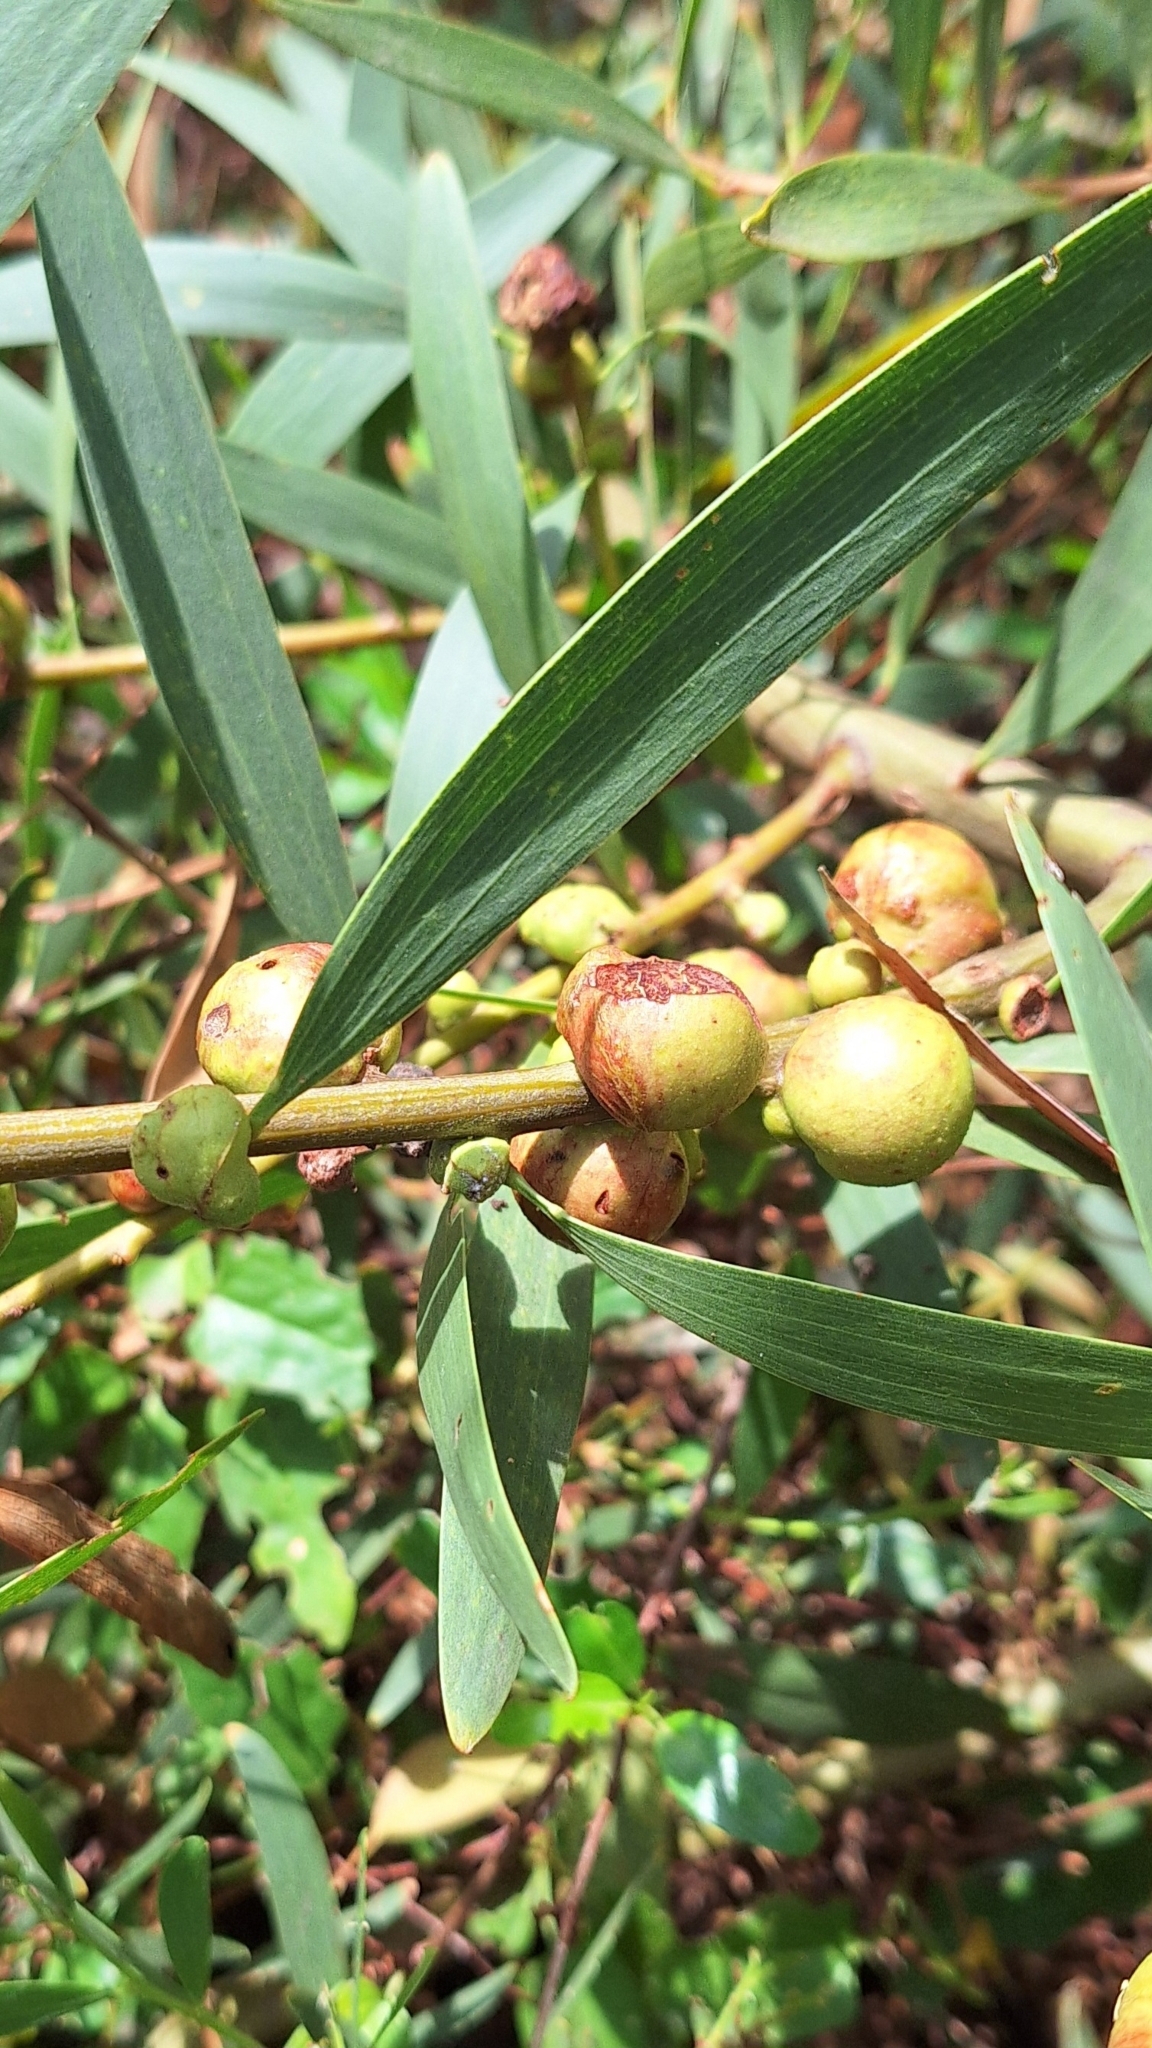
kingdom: Animalia
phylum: Arthropoda
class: Insecta
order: Hymenoptera
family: Pteromalidae
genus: Trichilogaster
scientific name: Trichilogaster acaciaelongifoliae
